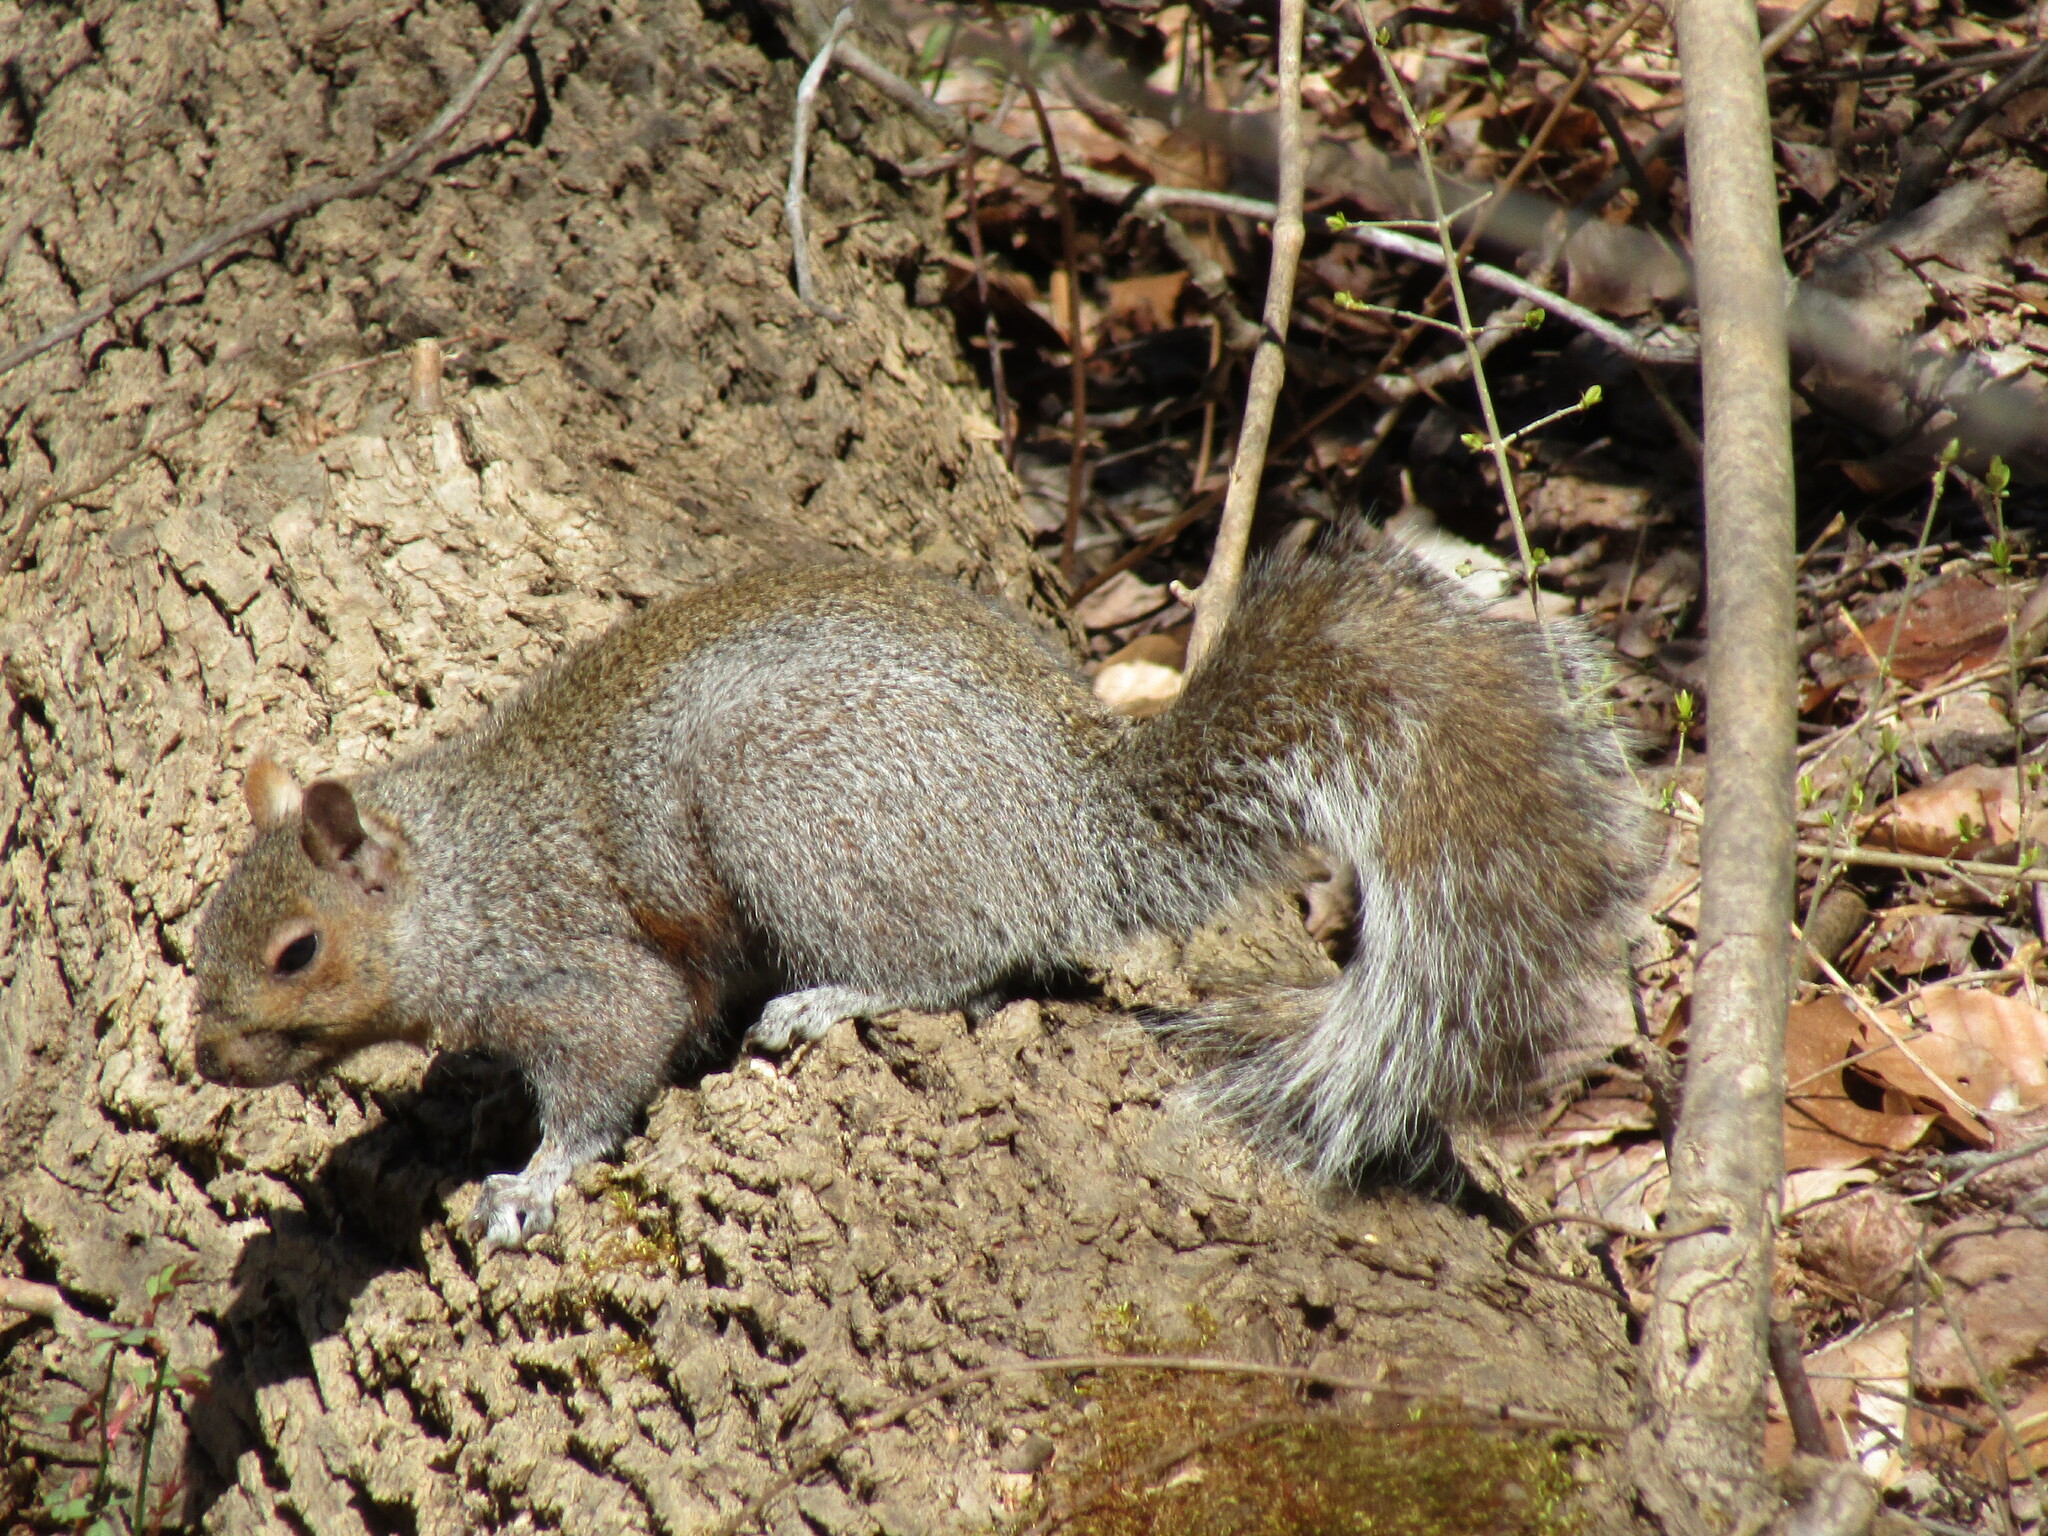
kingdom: Animalia
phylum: Chordata
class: Mammalia
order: Rodentia
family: Sciuridae
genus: Sciurus
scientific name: Sciurus carolinensis
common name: Eastern gray squirrel
